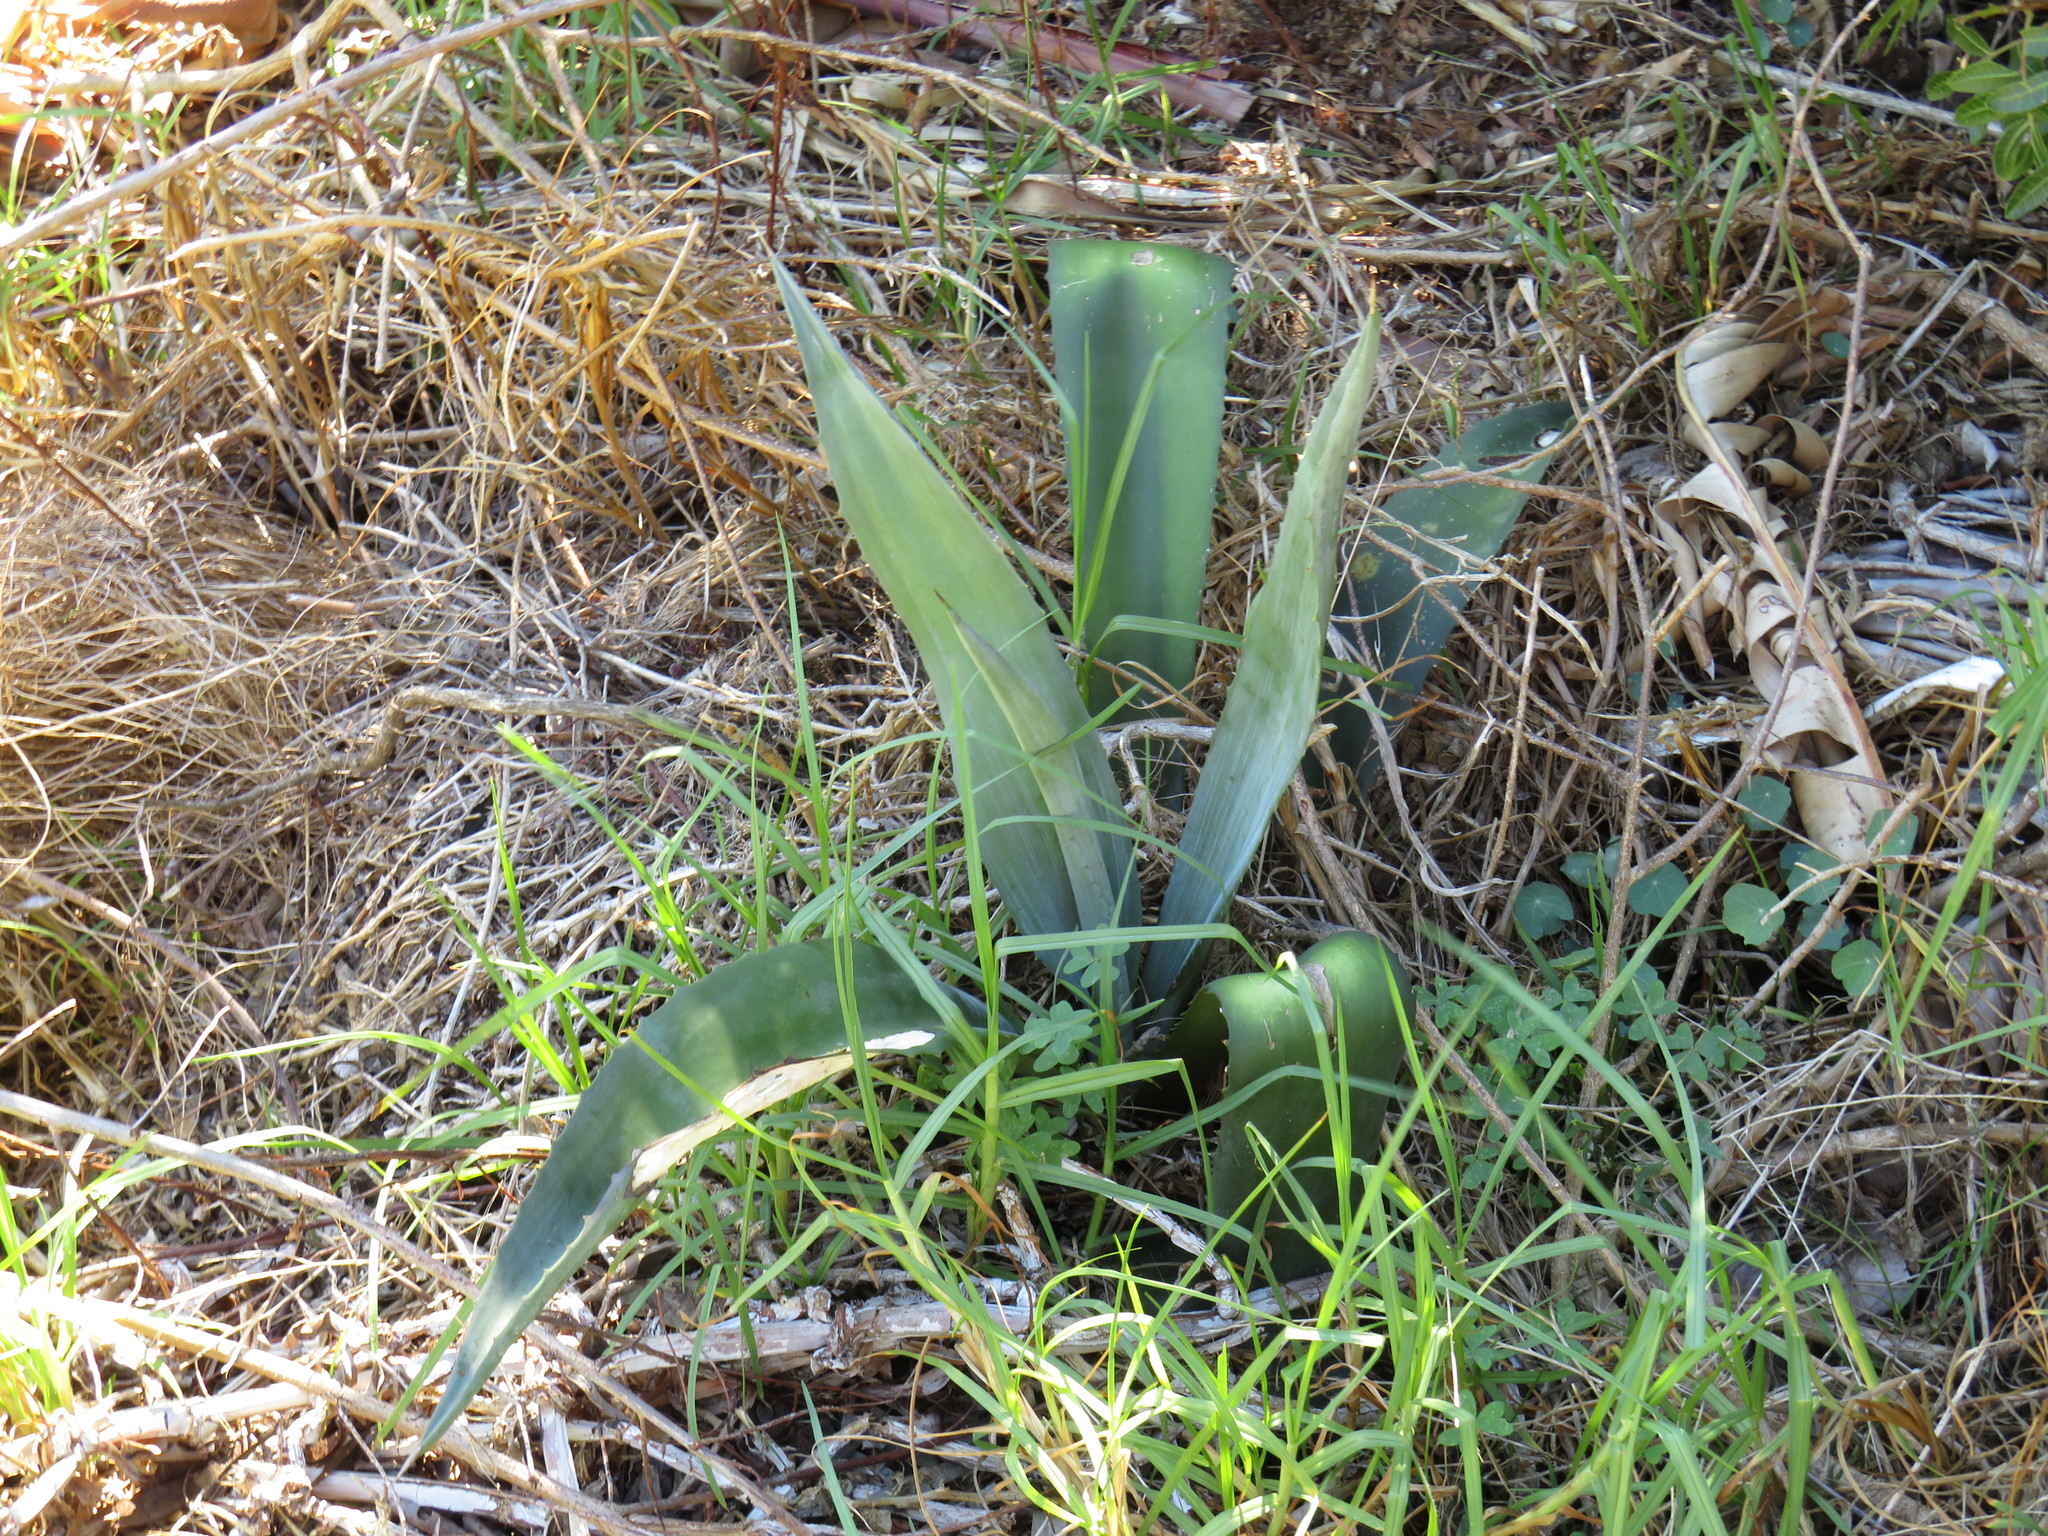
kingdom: Plantae
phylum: Tracheophyta
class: Liliopsida
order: Asparagales
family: Asparagaceae
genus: Agave
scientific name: Agave americana
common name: Centuryplant
